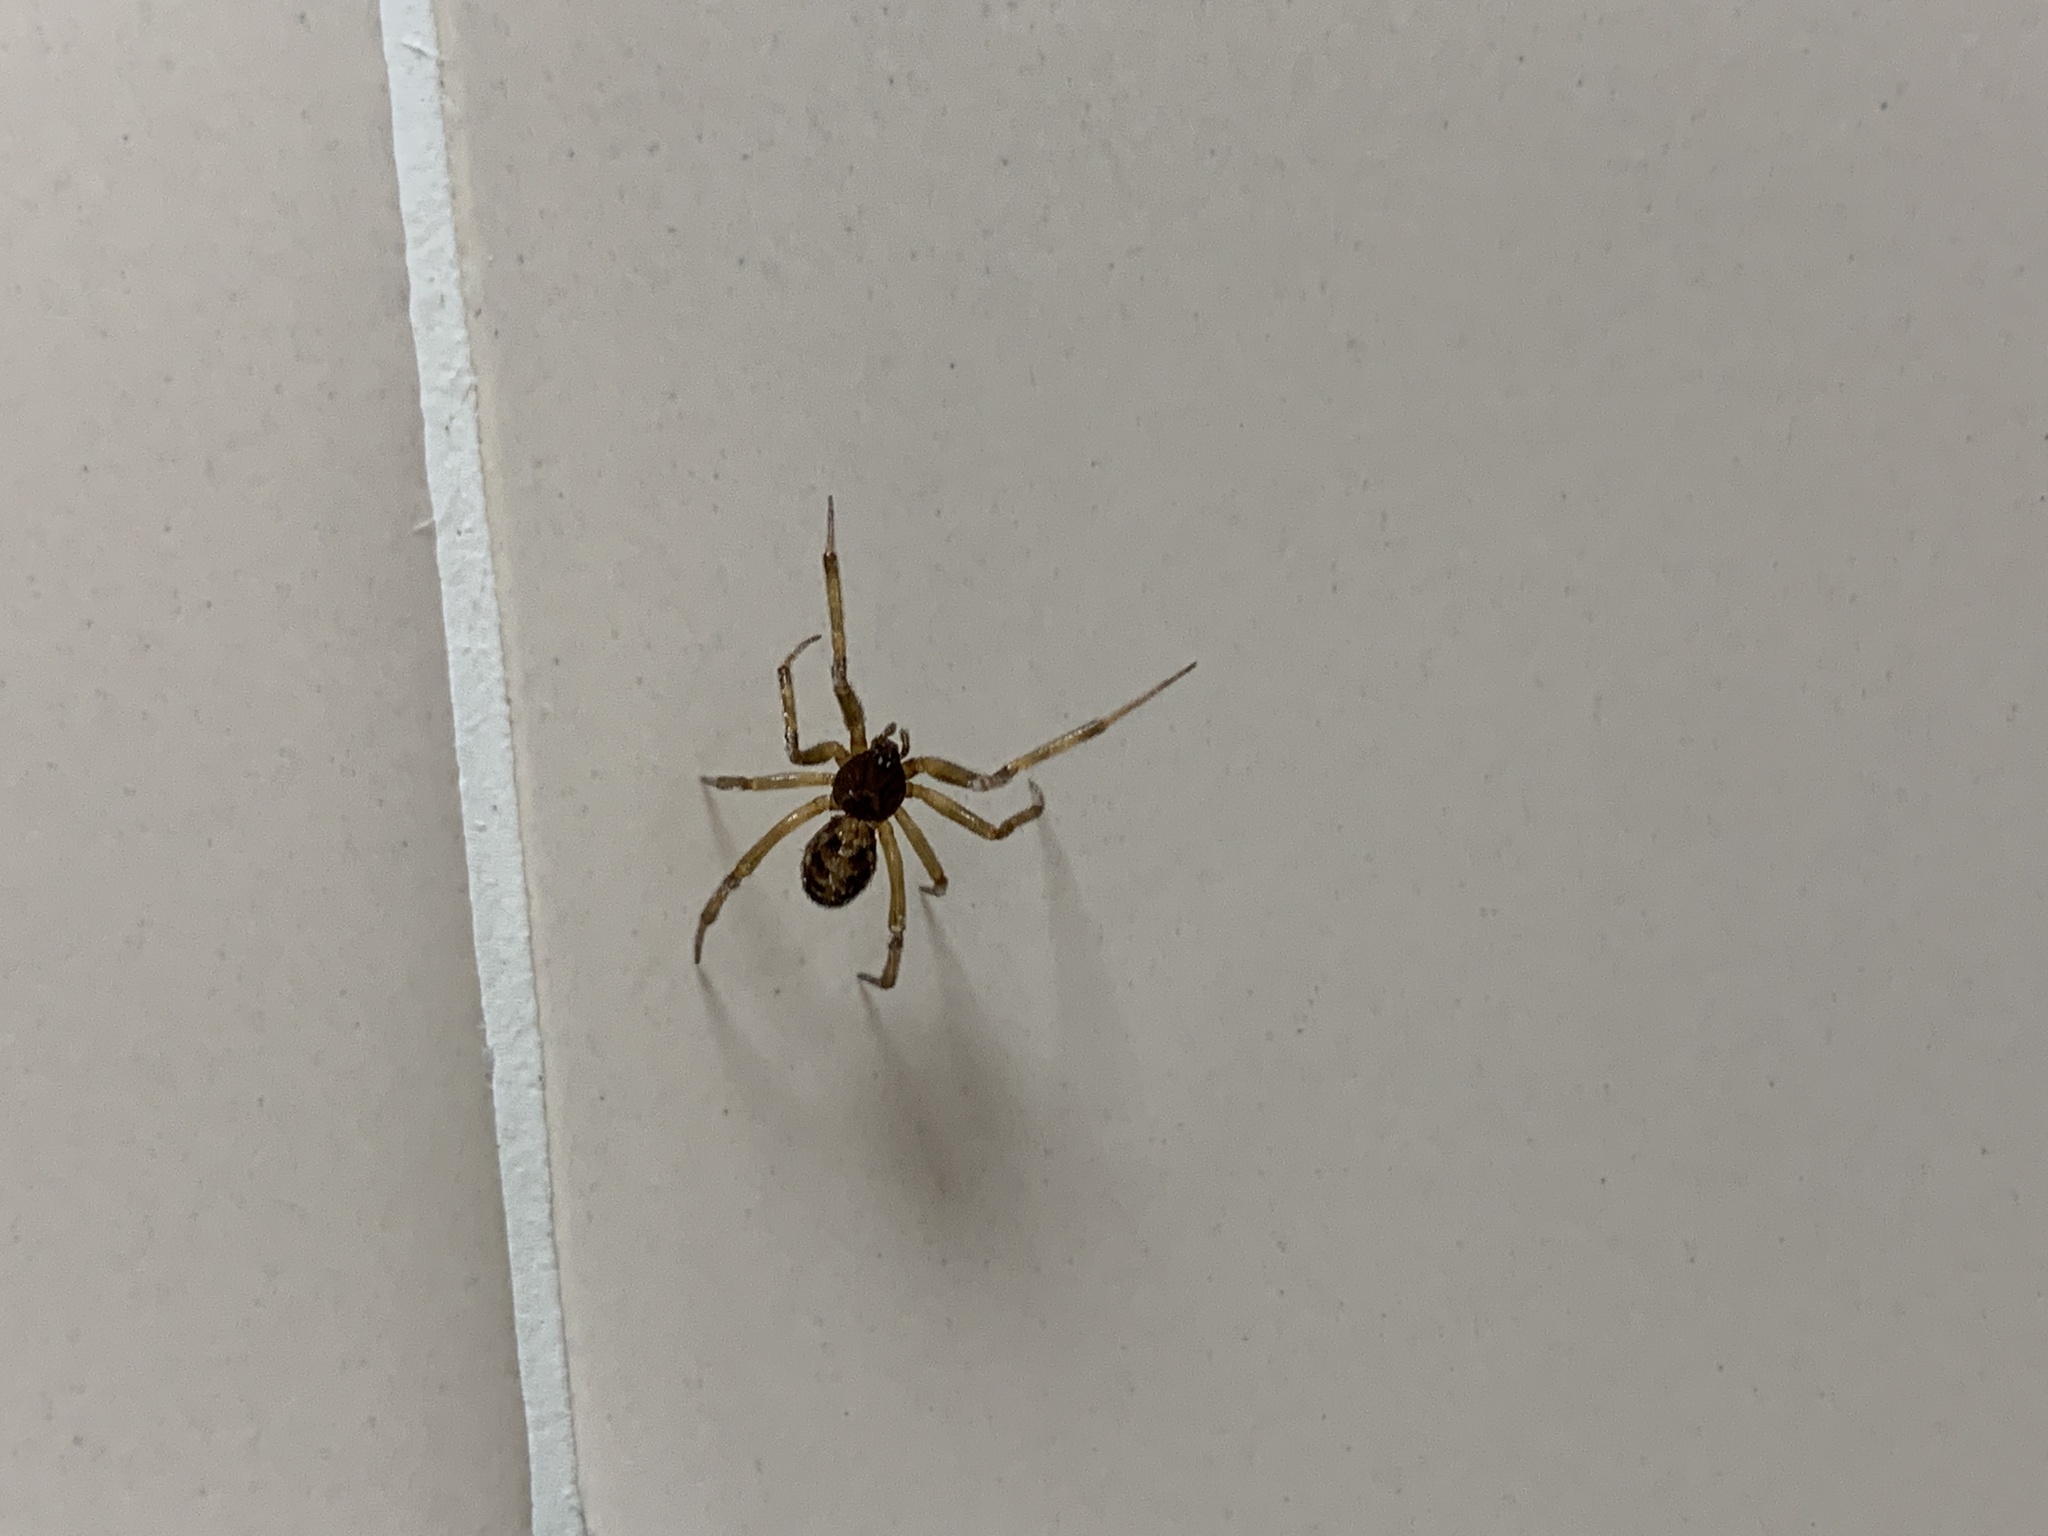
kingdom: Animalia
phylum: Arthropoda
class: Arachnida
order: Araneae
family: Theridiidae
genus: Steatoda
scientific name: Steatoda triangulosa
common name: Triangulate bud spider
